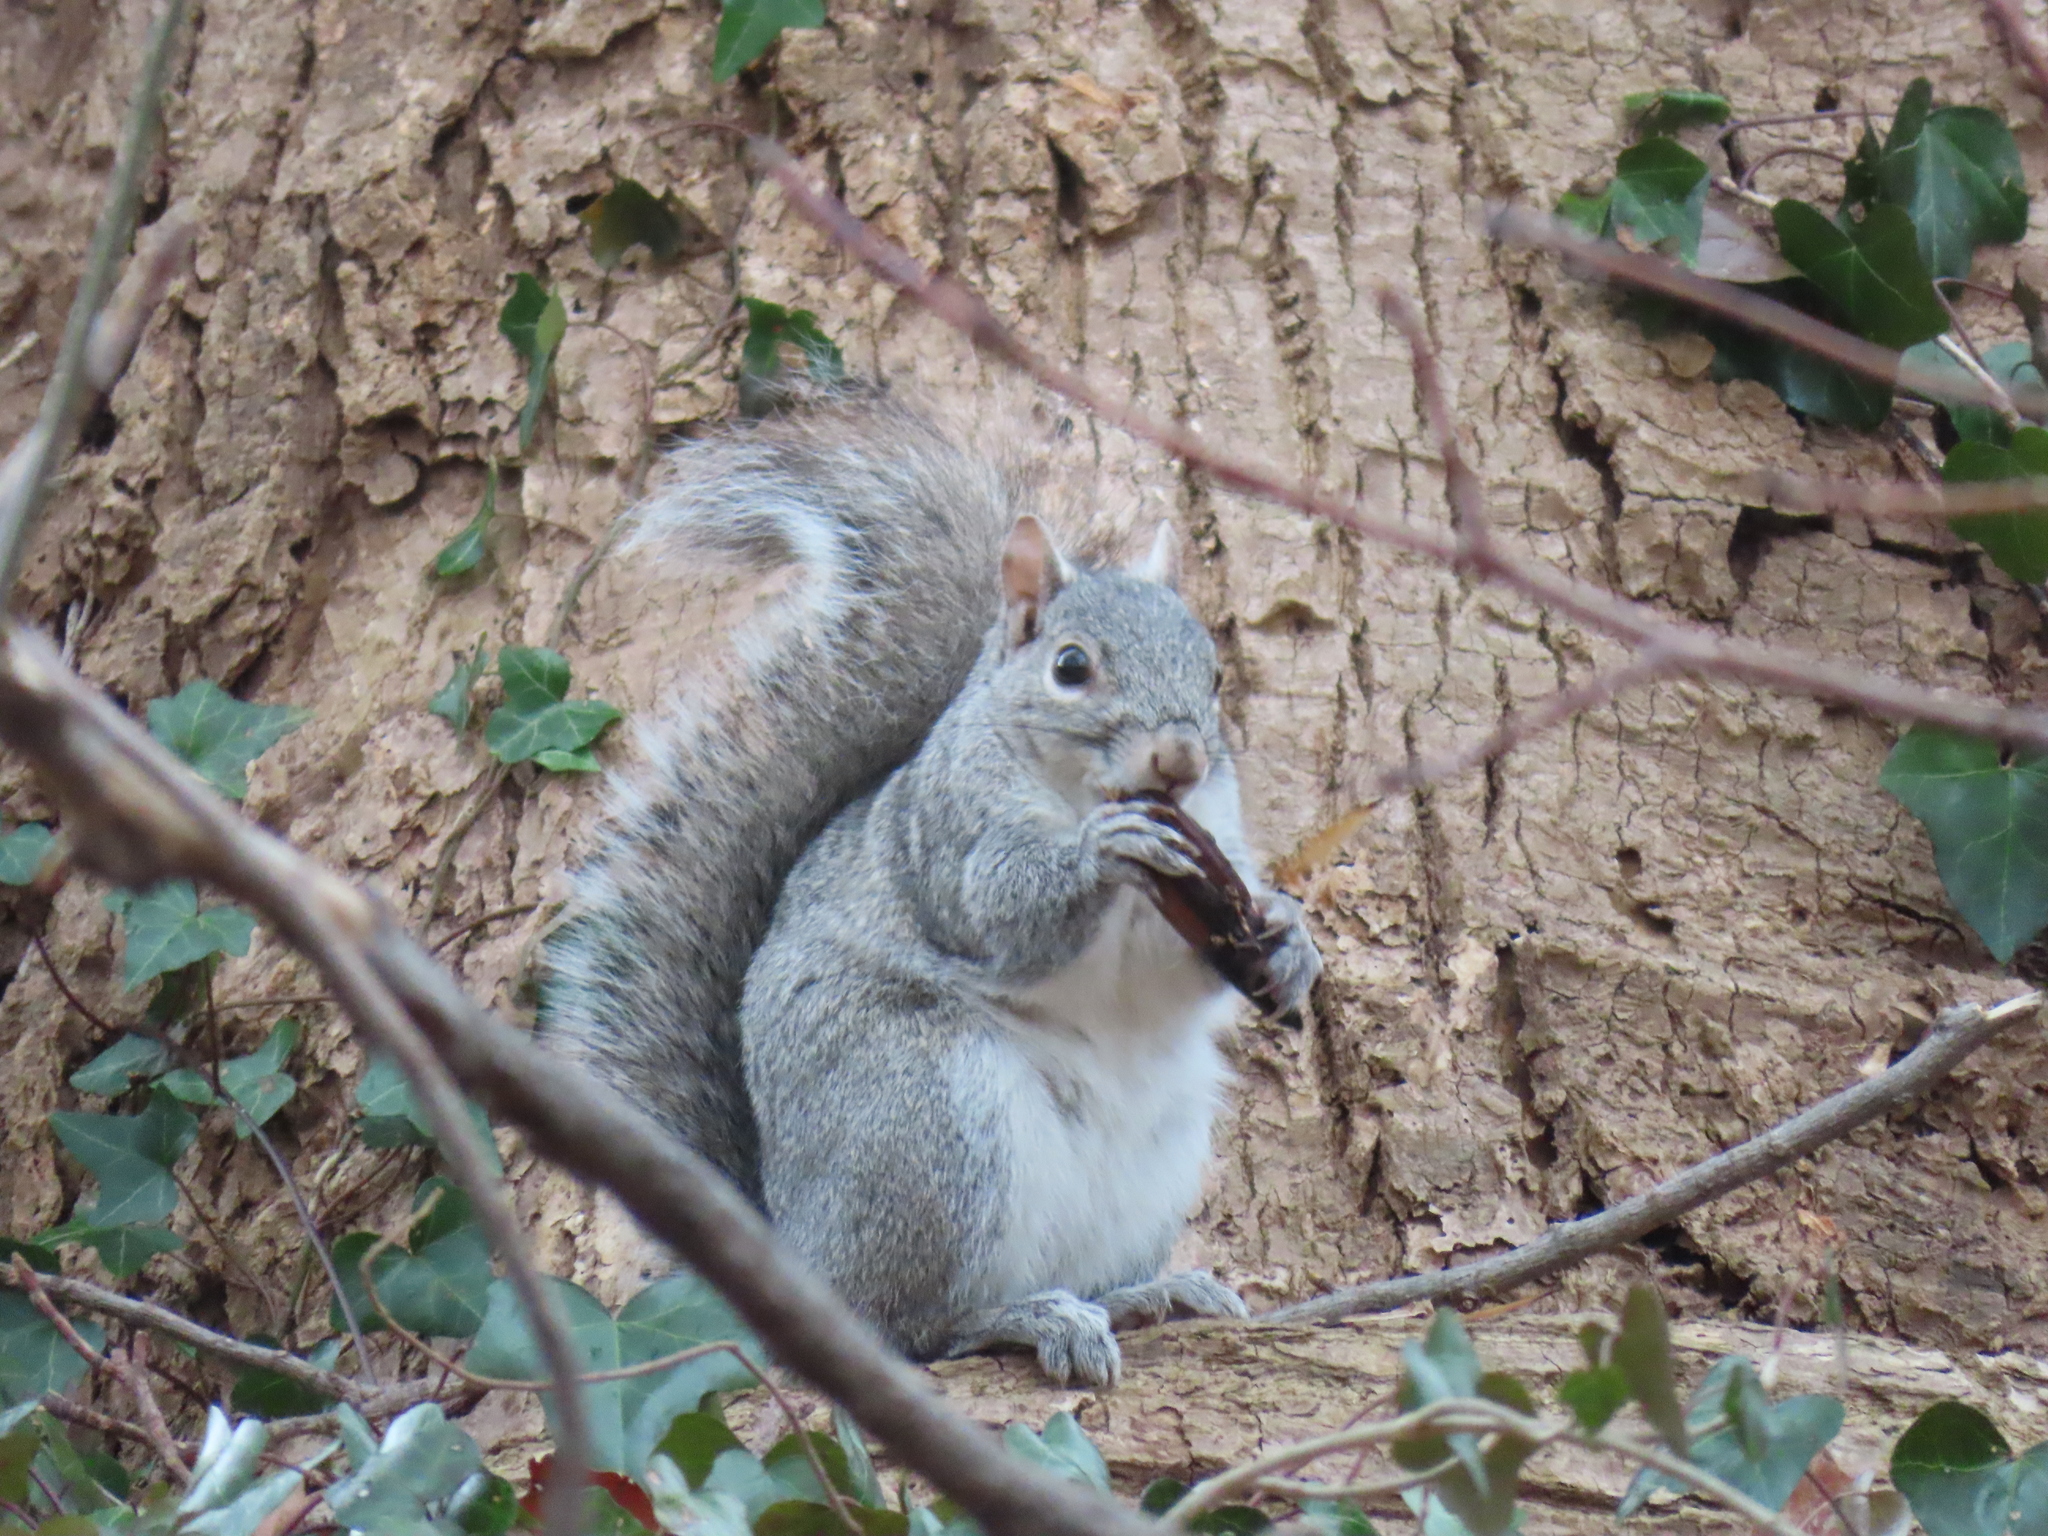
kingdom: Animalia
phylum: Chordata
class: Mammalia
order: Rodentia
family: Sciuridae
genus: Sciurus
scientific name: Sciurus carolinensis
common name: Eastern gray squirrel
